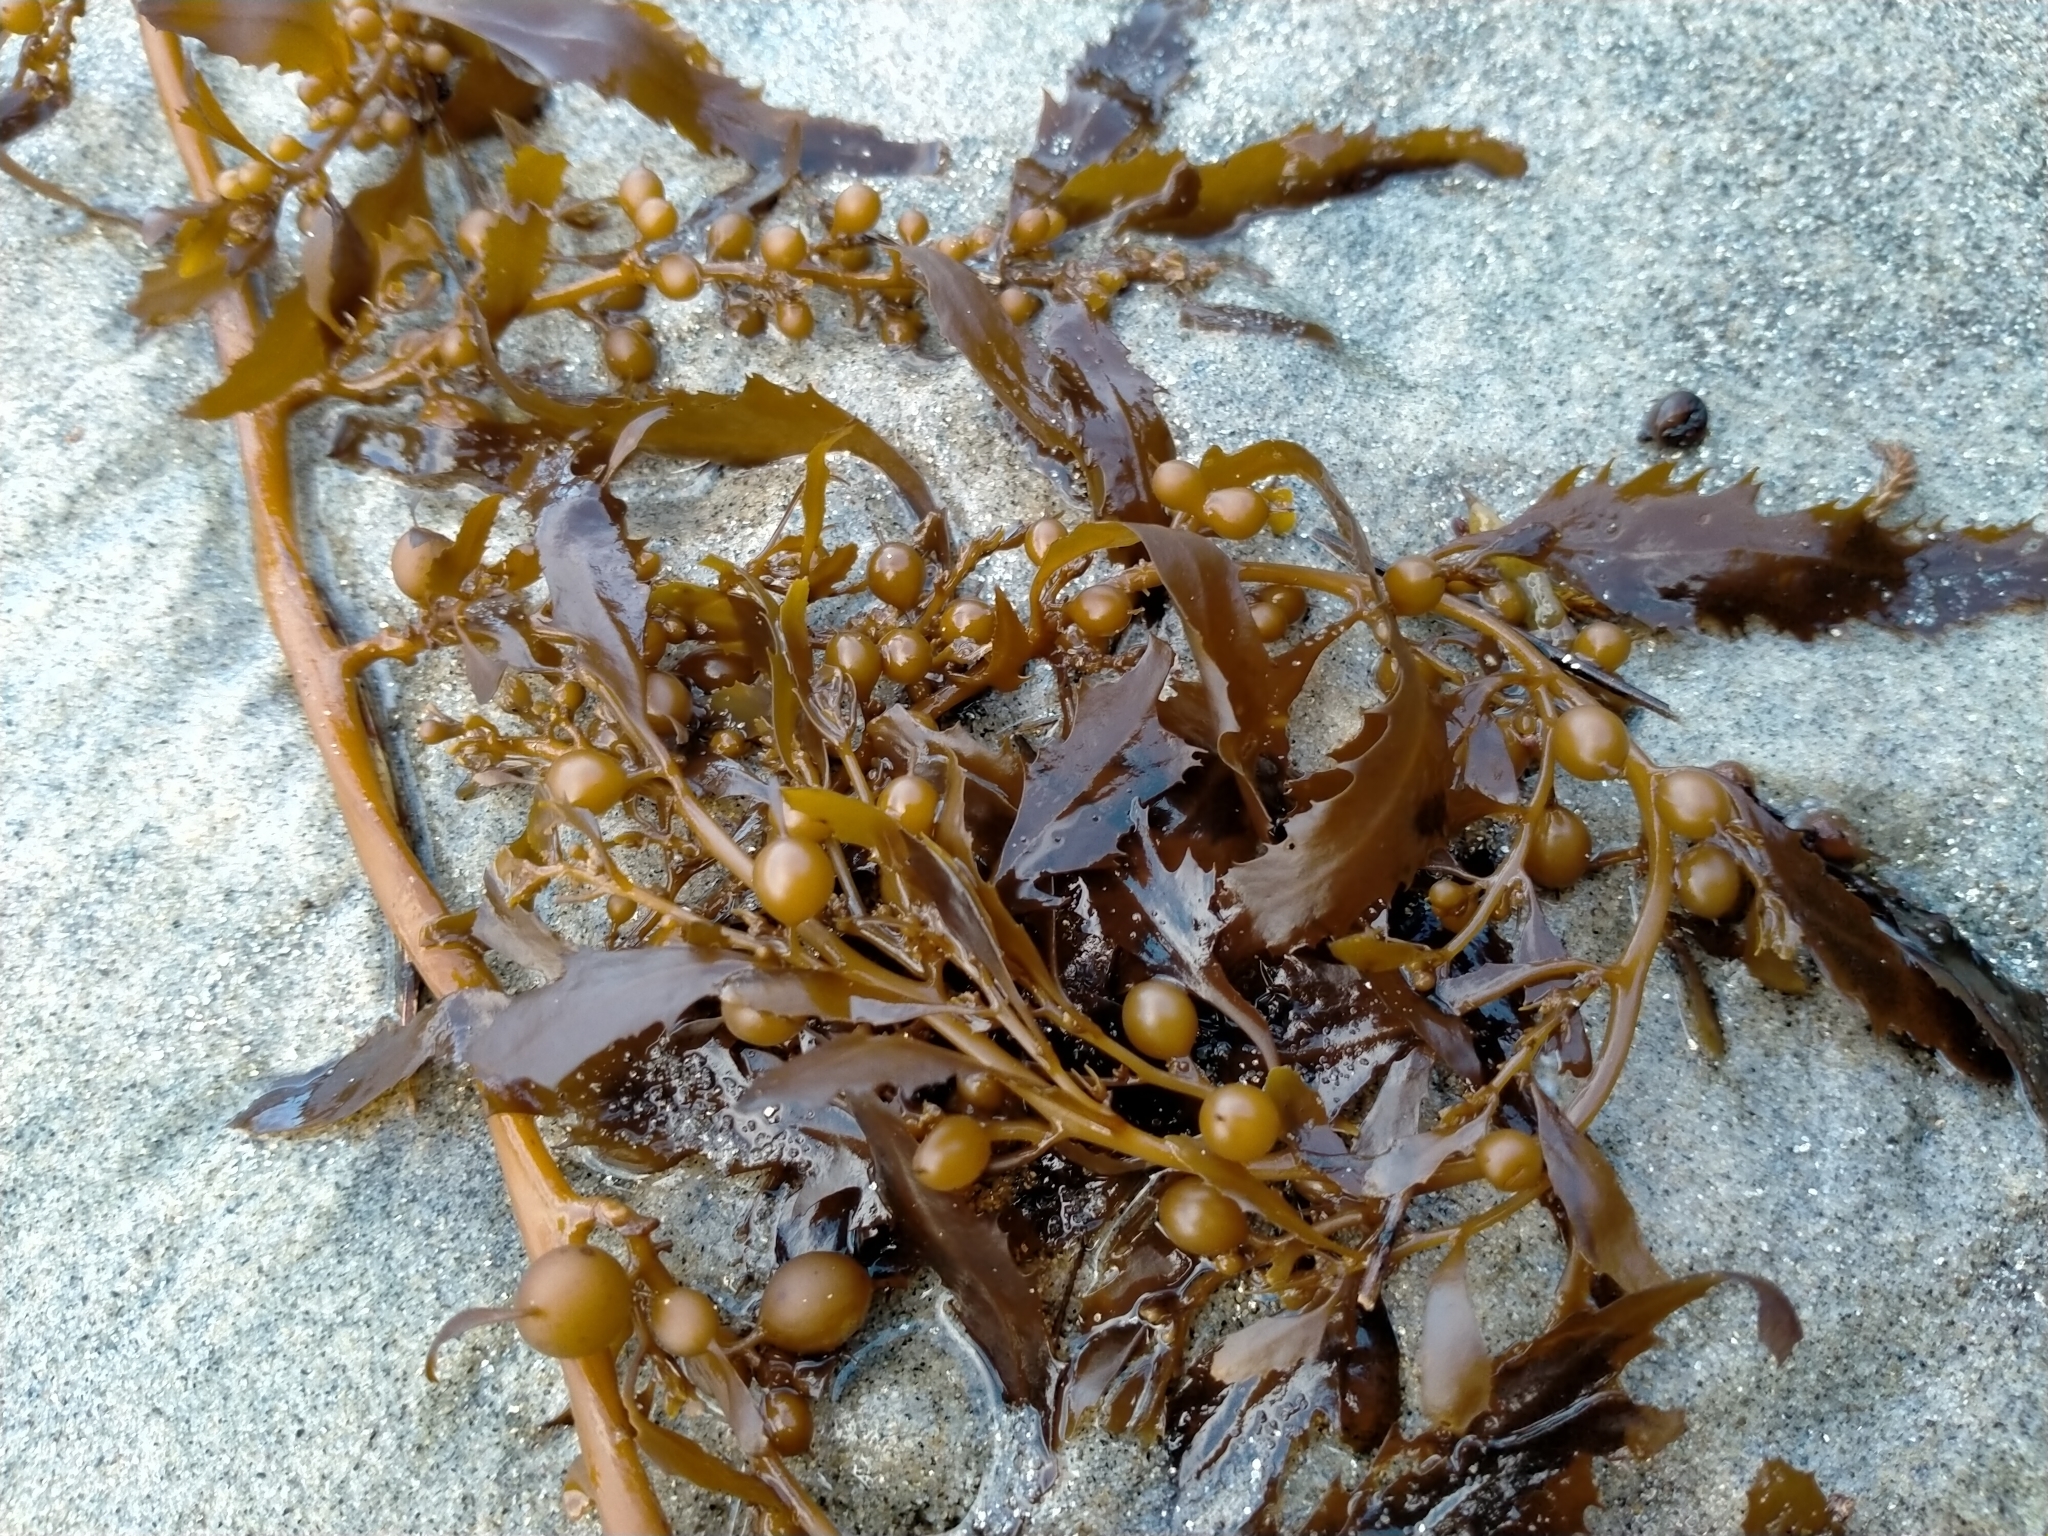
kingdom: Chromista
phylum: Ochrophyta
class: Phaeophyceae
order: Fucales
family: Sargassaceae
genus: Sargassum
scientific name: Sargassum sinclairii
